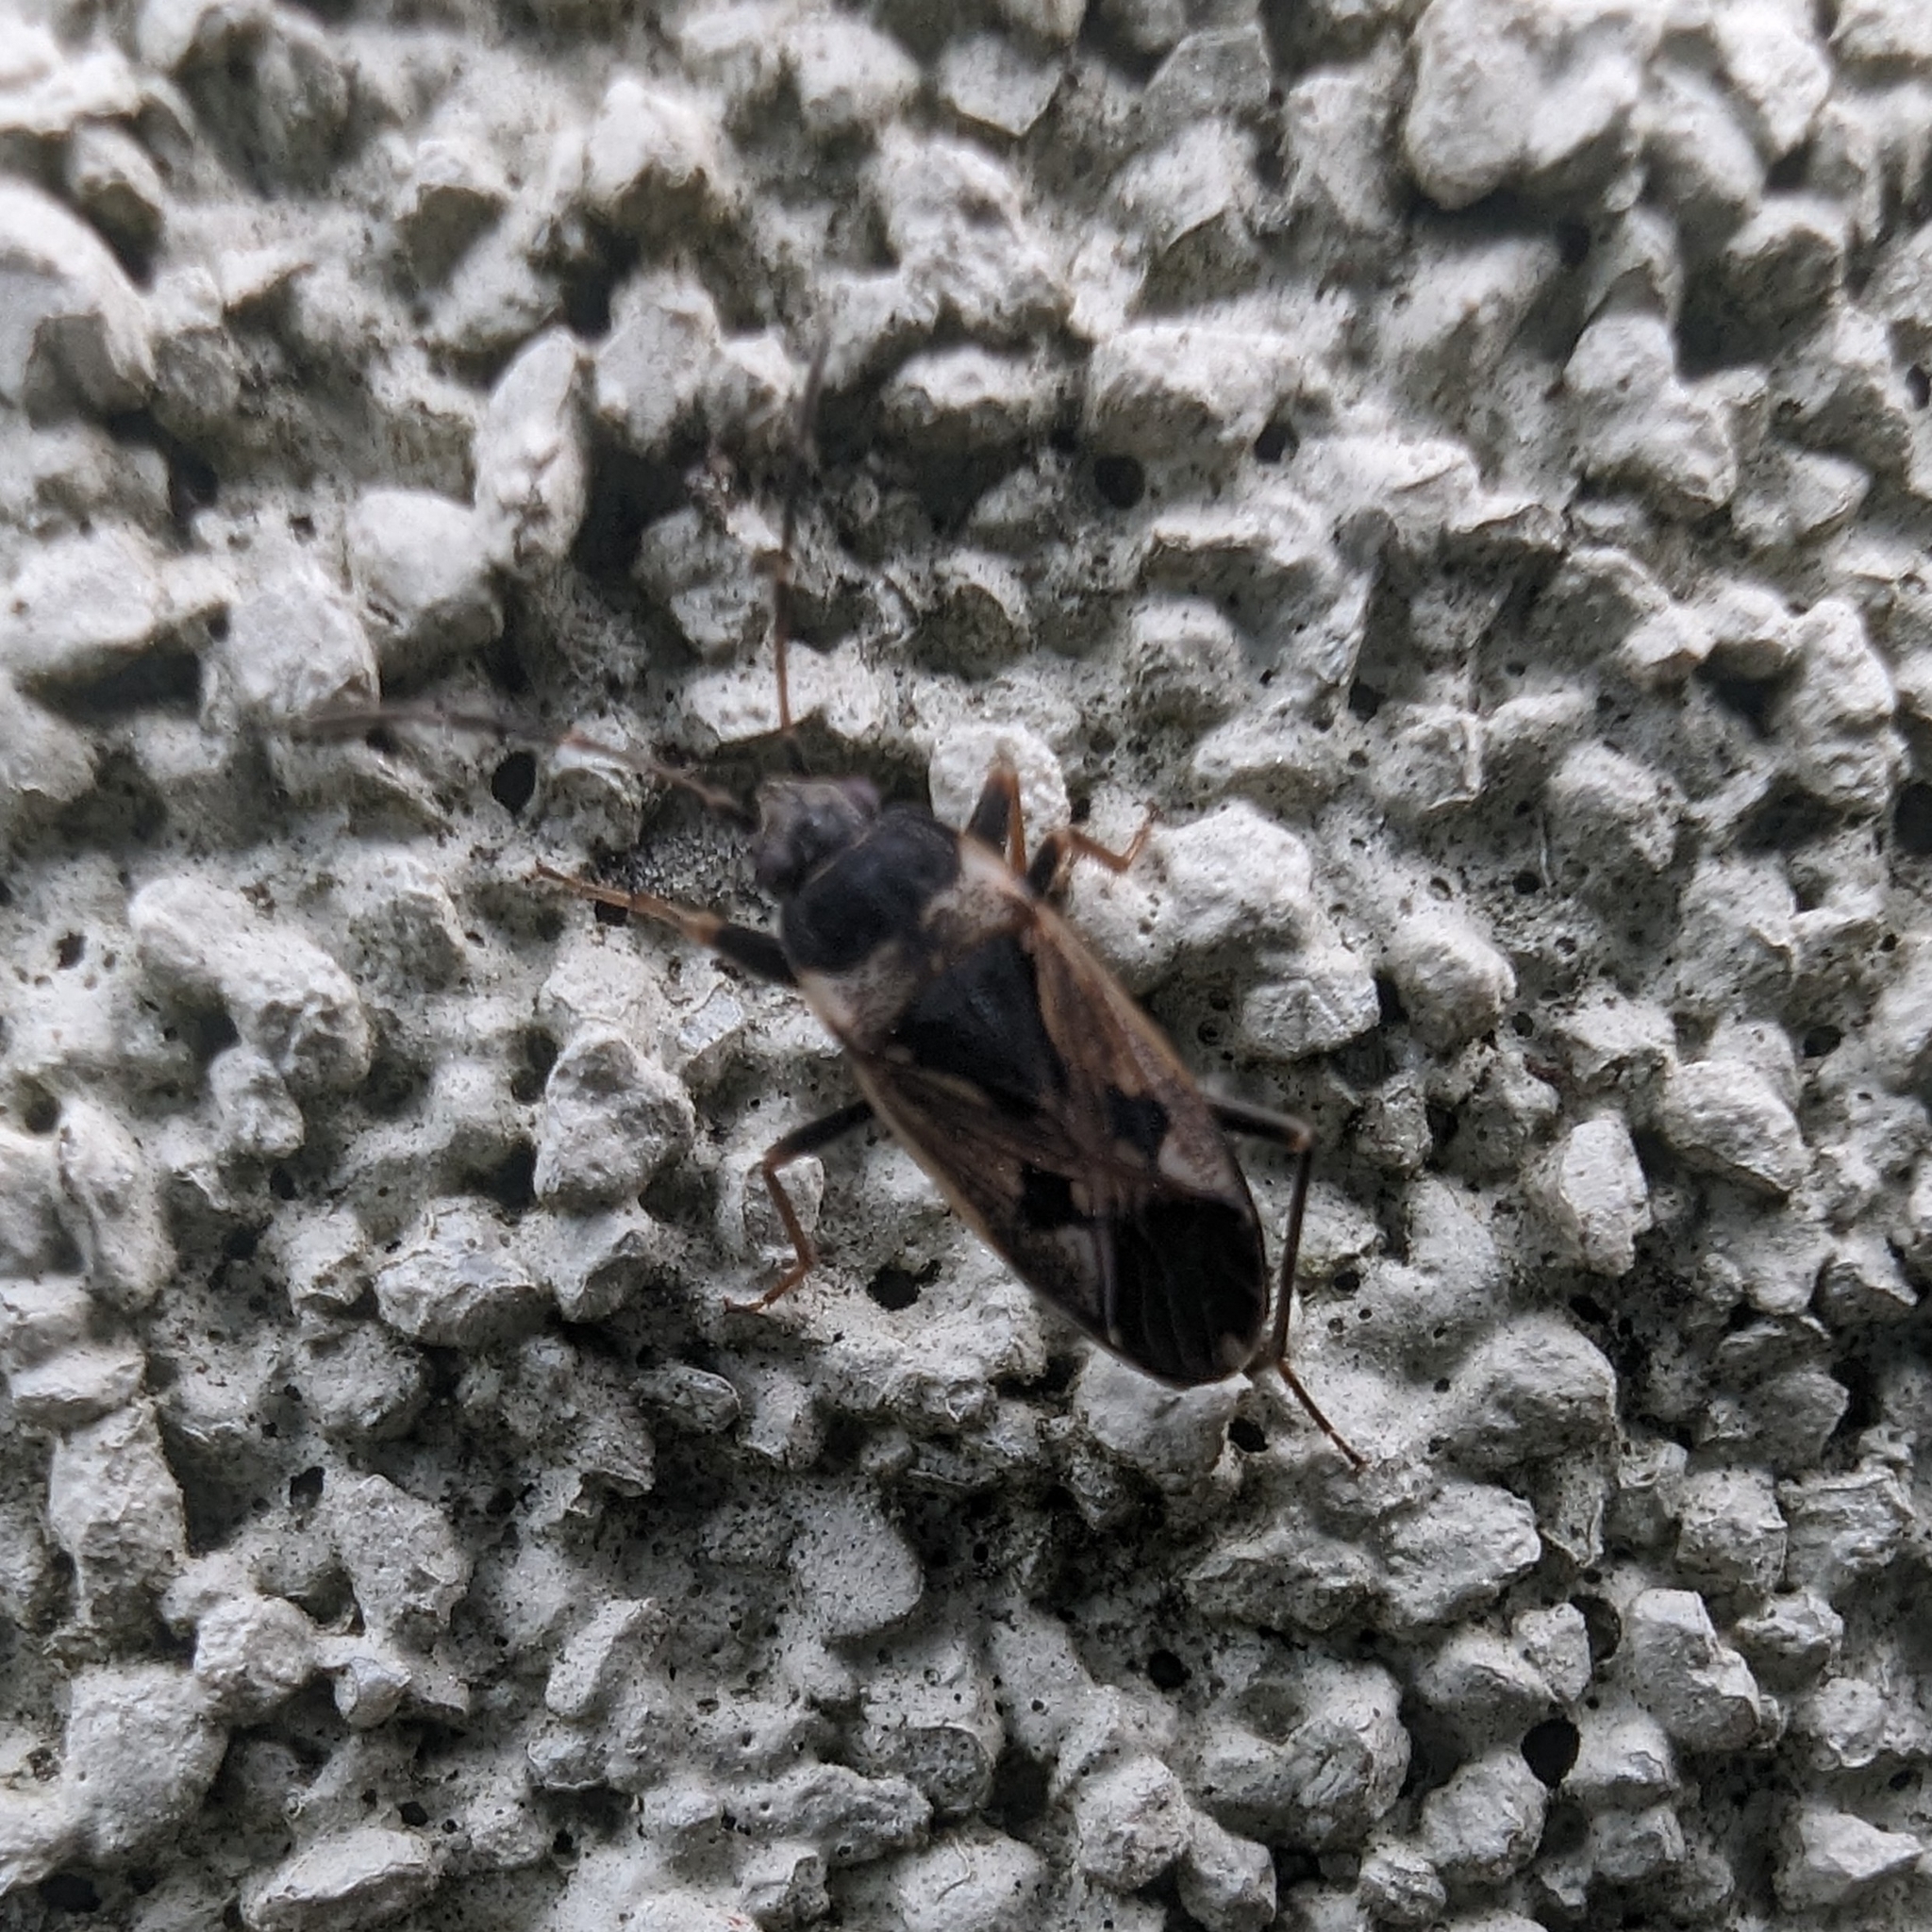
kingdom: Animalia
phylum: Arthropoda
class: Insecta
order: Hemiptera
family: Rhyparochromidae
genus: Rhyparochromus
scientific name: Rhyparochromus vulgaris
